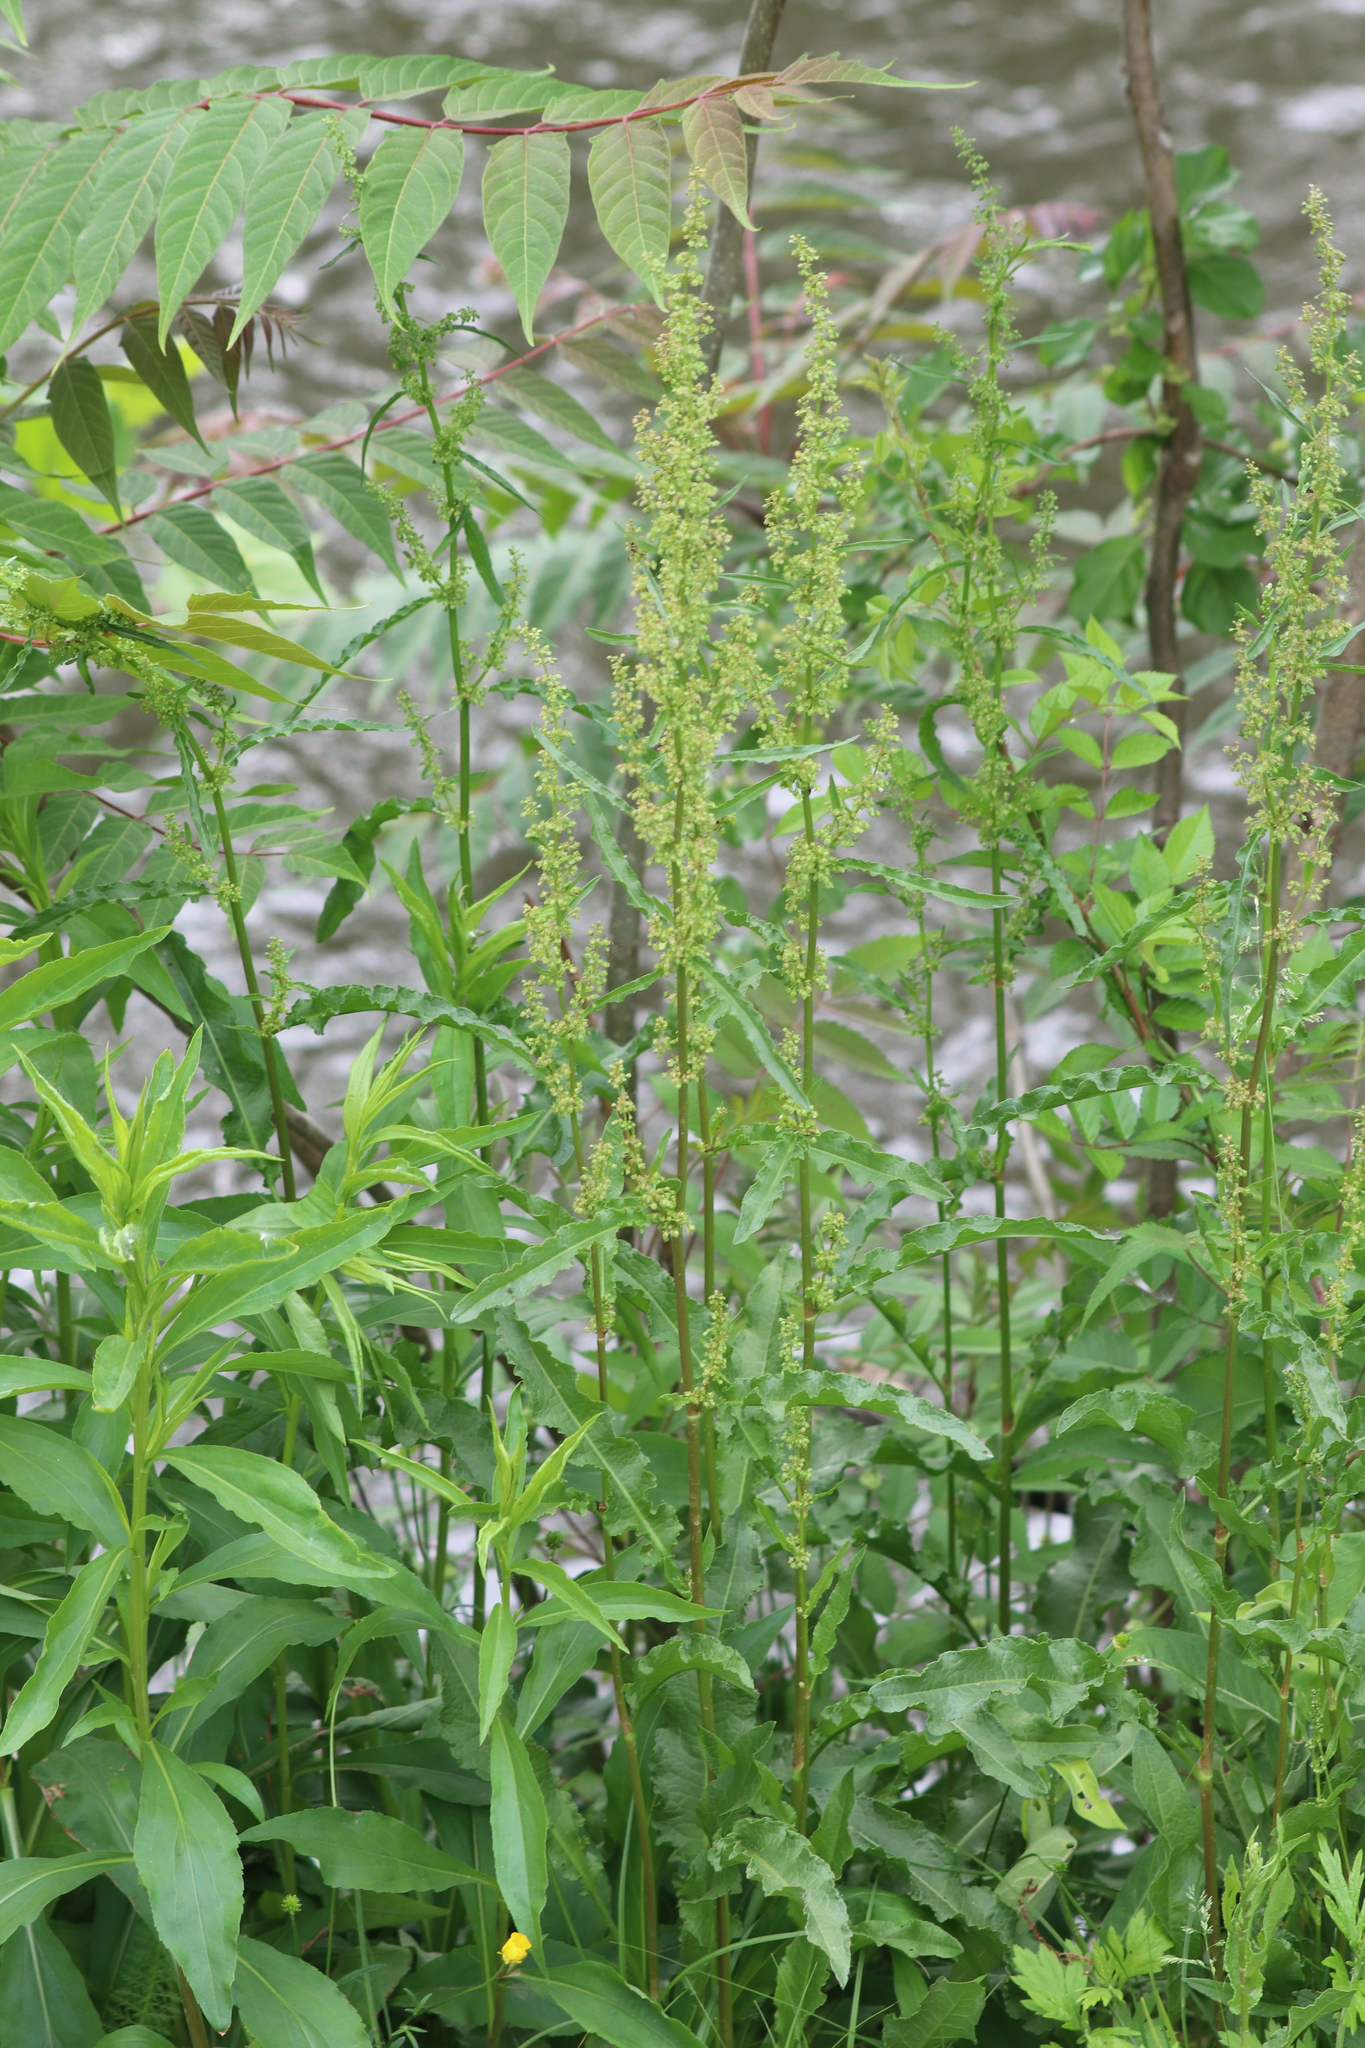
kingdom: Plantae
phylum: Tracheophyta
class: Magnoliopsida
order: Caryophyllales
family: Polygonaceae
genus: Rumex
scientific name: Rumex crispus
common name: Curled dock
